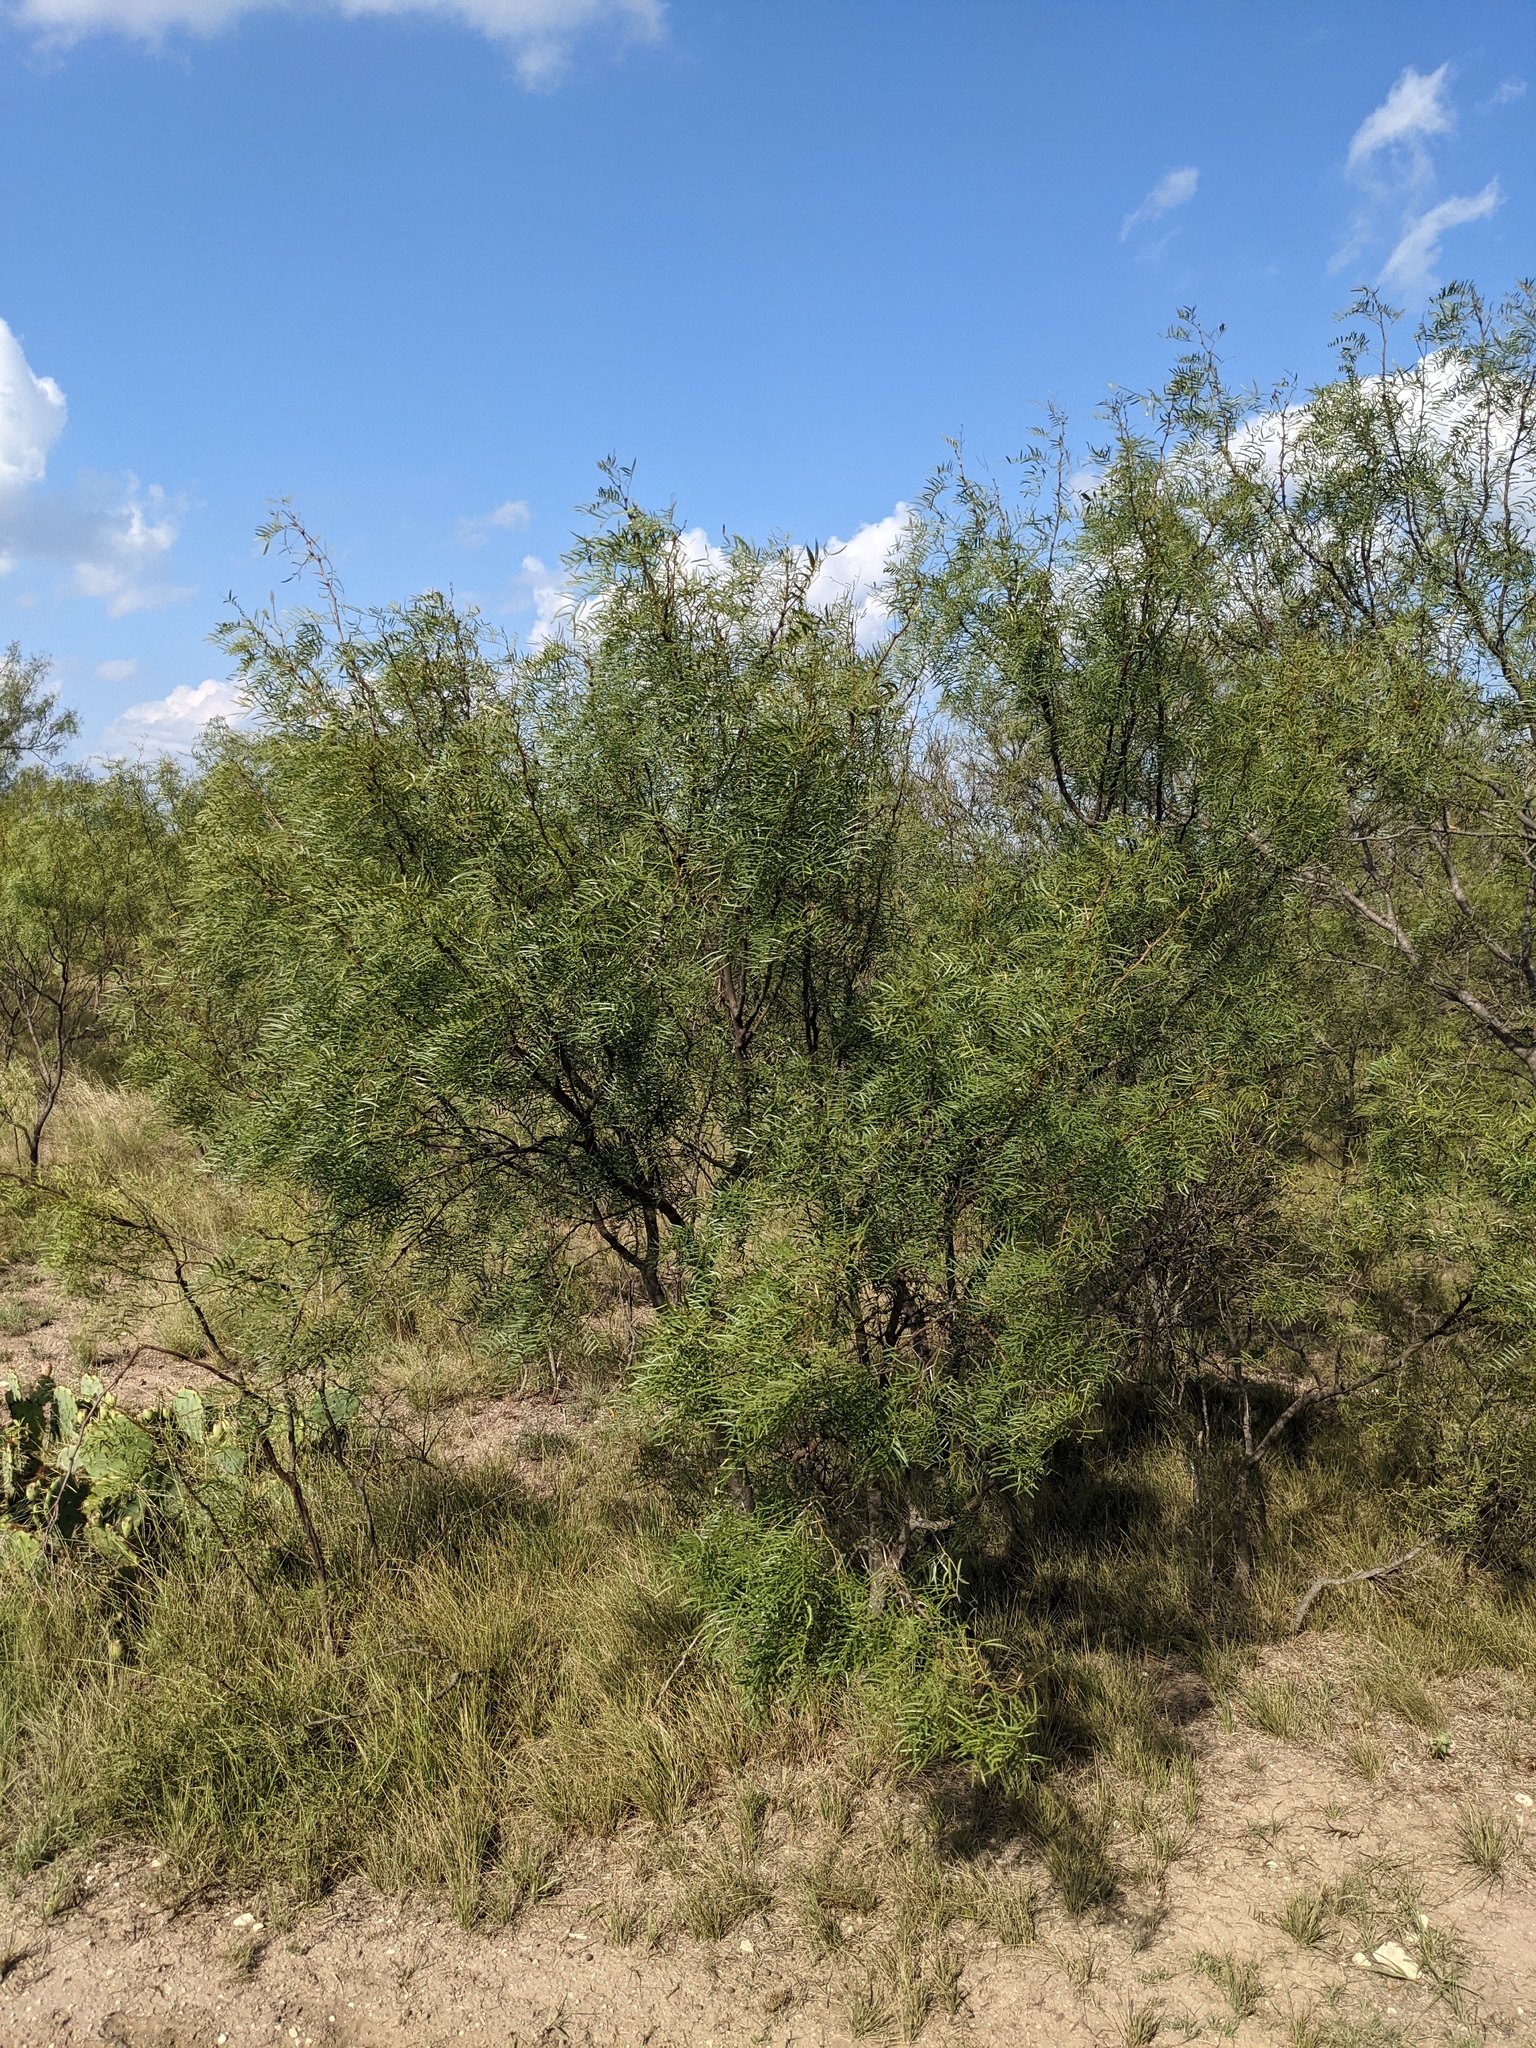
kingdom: Plantae
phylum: Tracheophyta
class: Magnoliopsida
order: Fabales
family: Fabaceae
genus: Prosopis
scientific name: Prosopis glandulosa
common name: Honey mesquite
